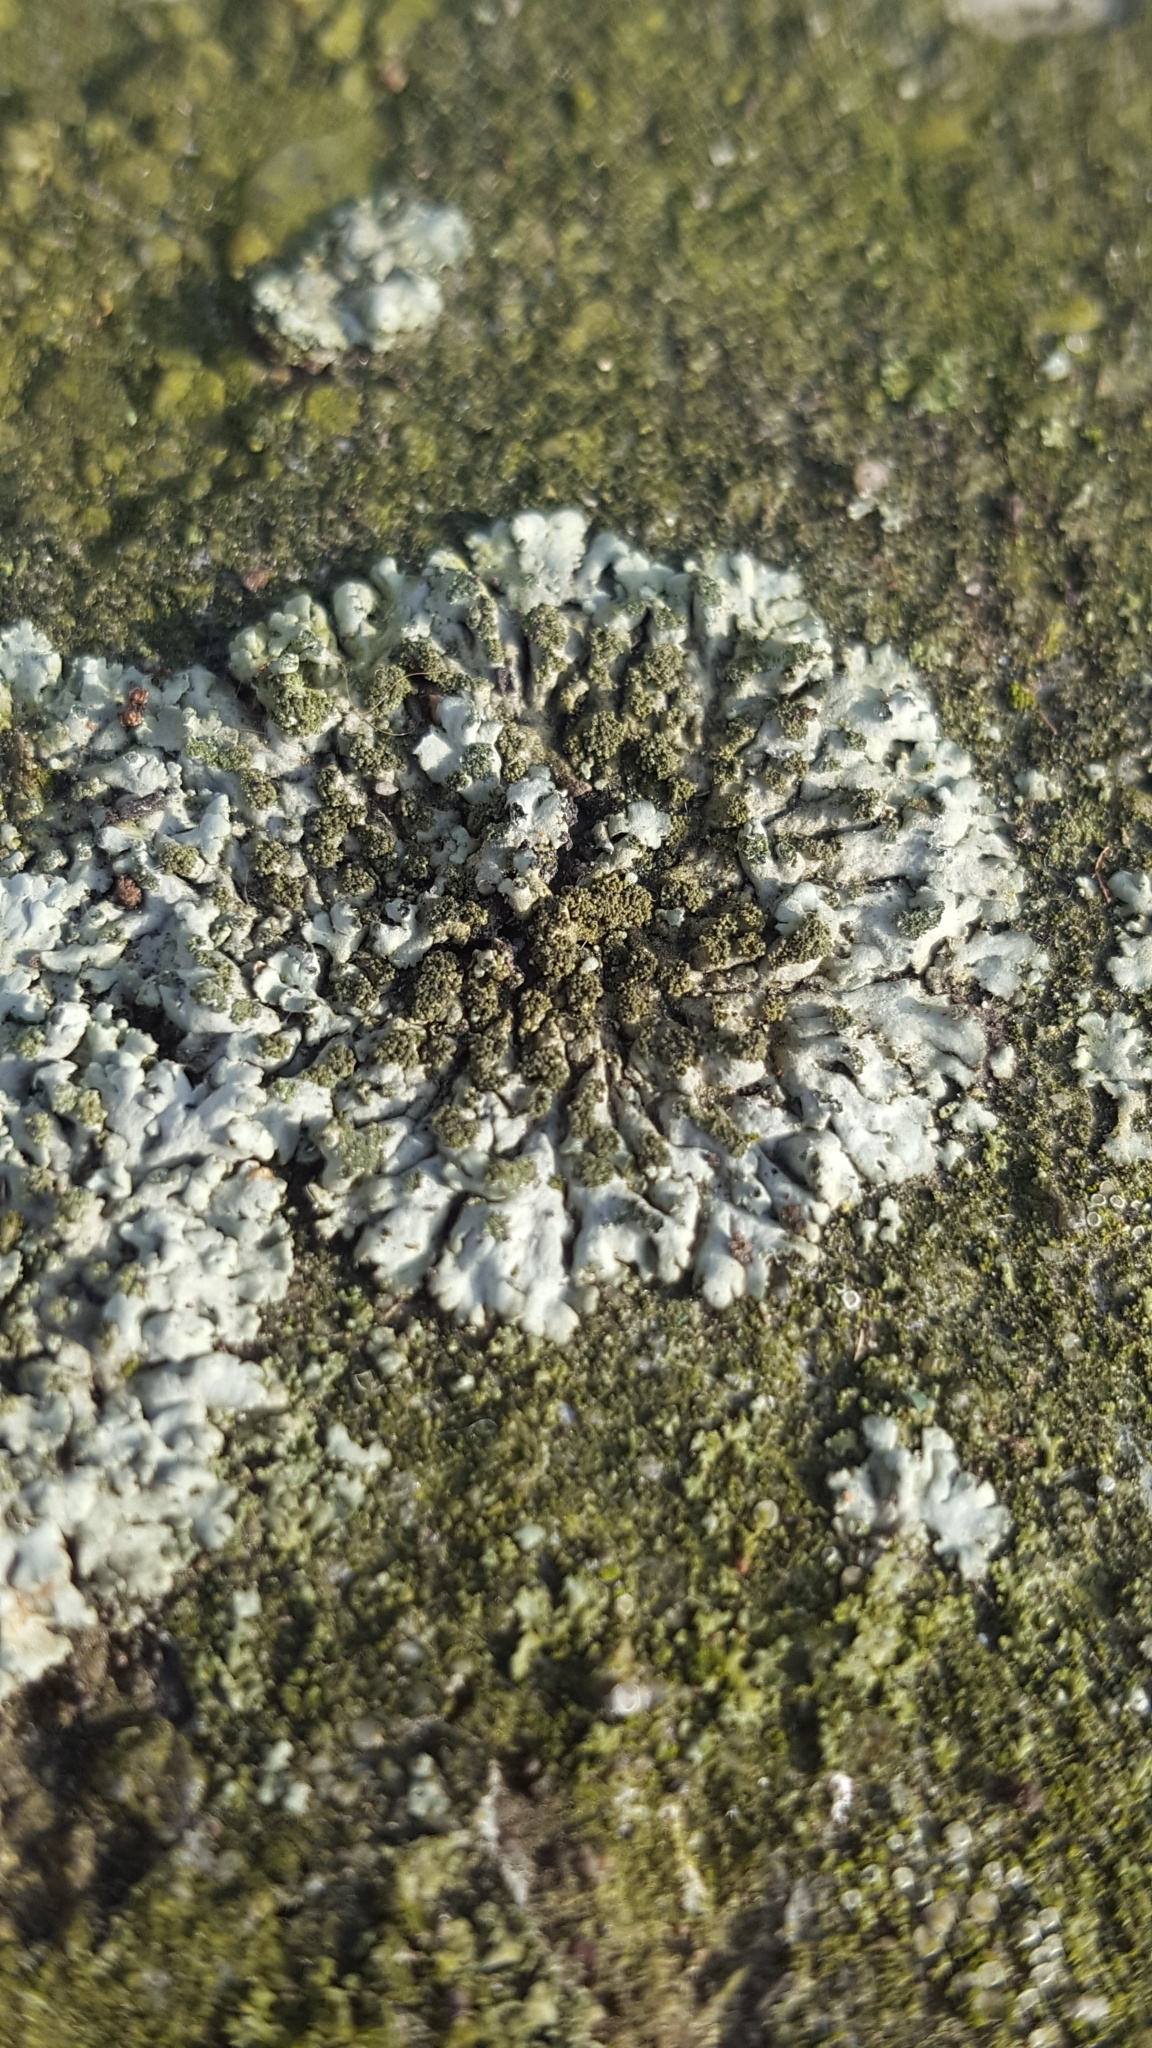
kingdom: Fungi
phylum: Ascomycota
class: Lecanoromycetes
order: Caliciales
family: Physciaceae
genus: Phaeophyscia
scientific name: Phaeophyscia orbicularis
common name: Mealy shadow lichen
